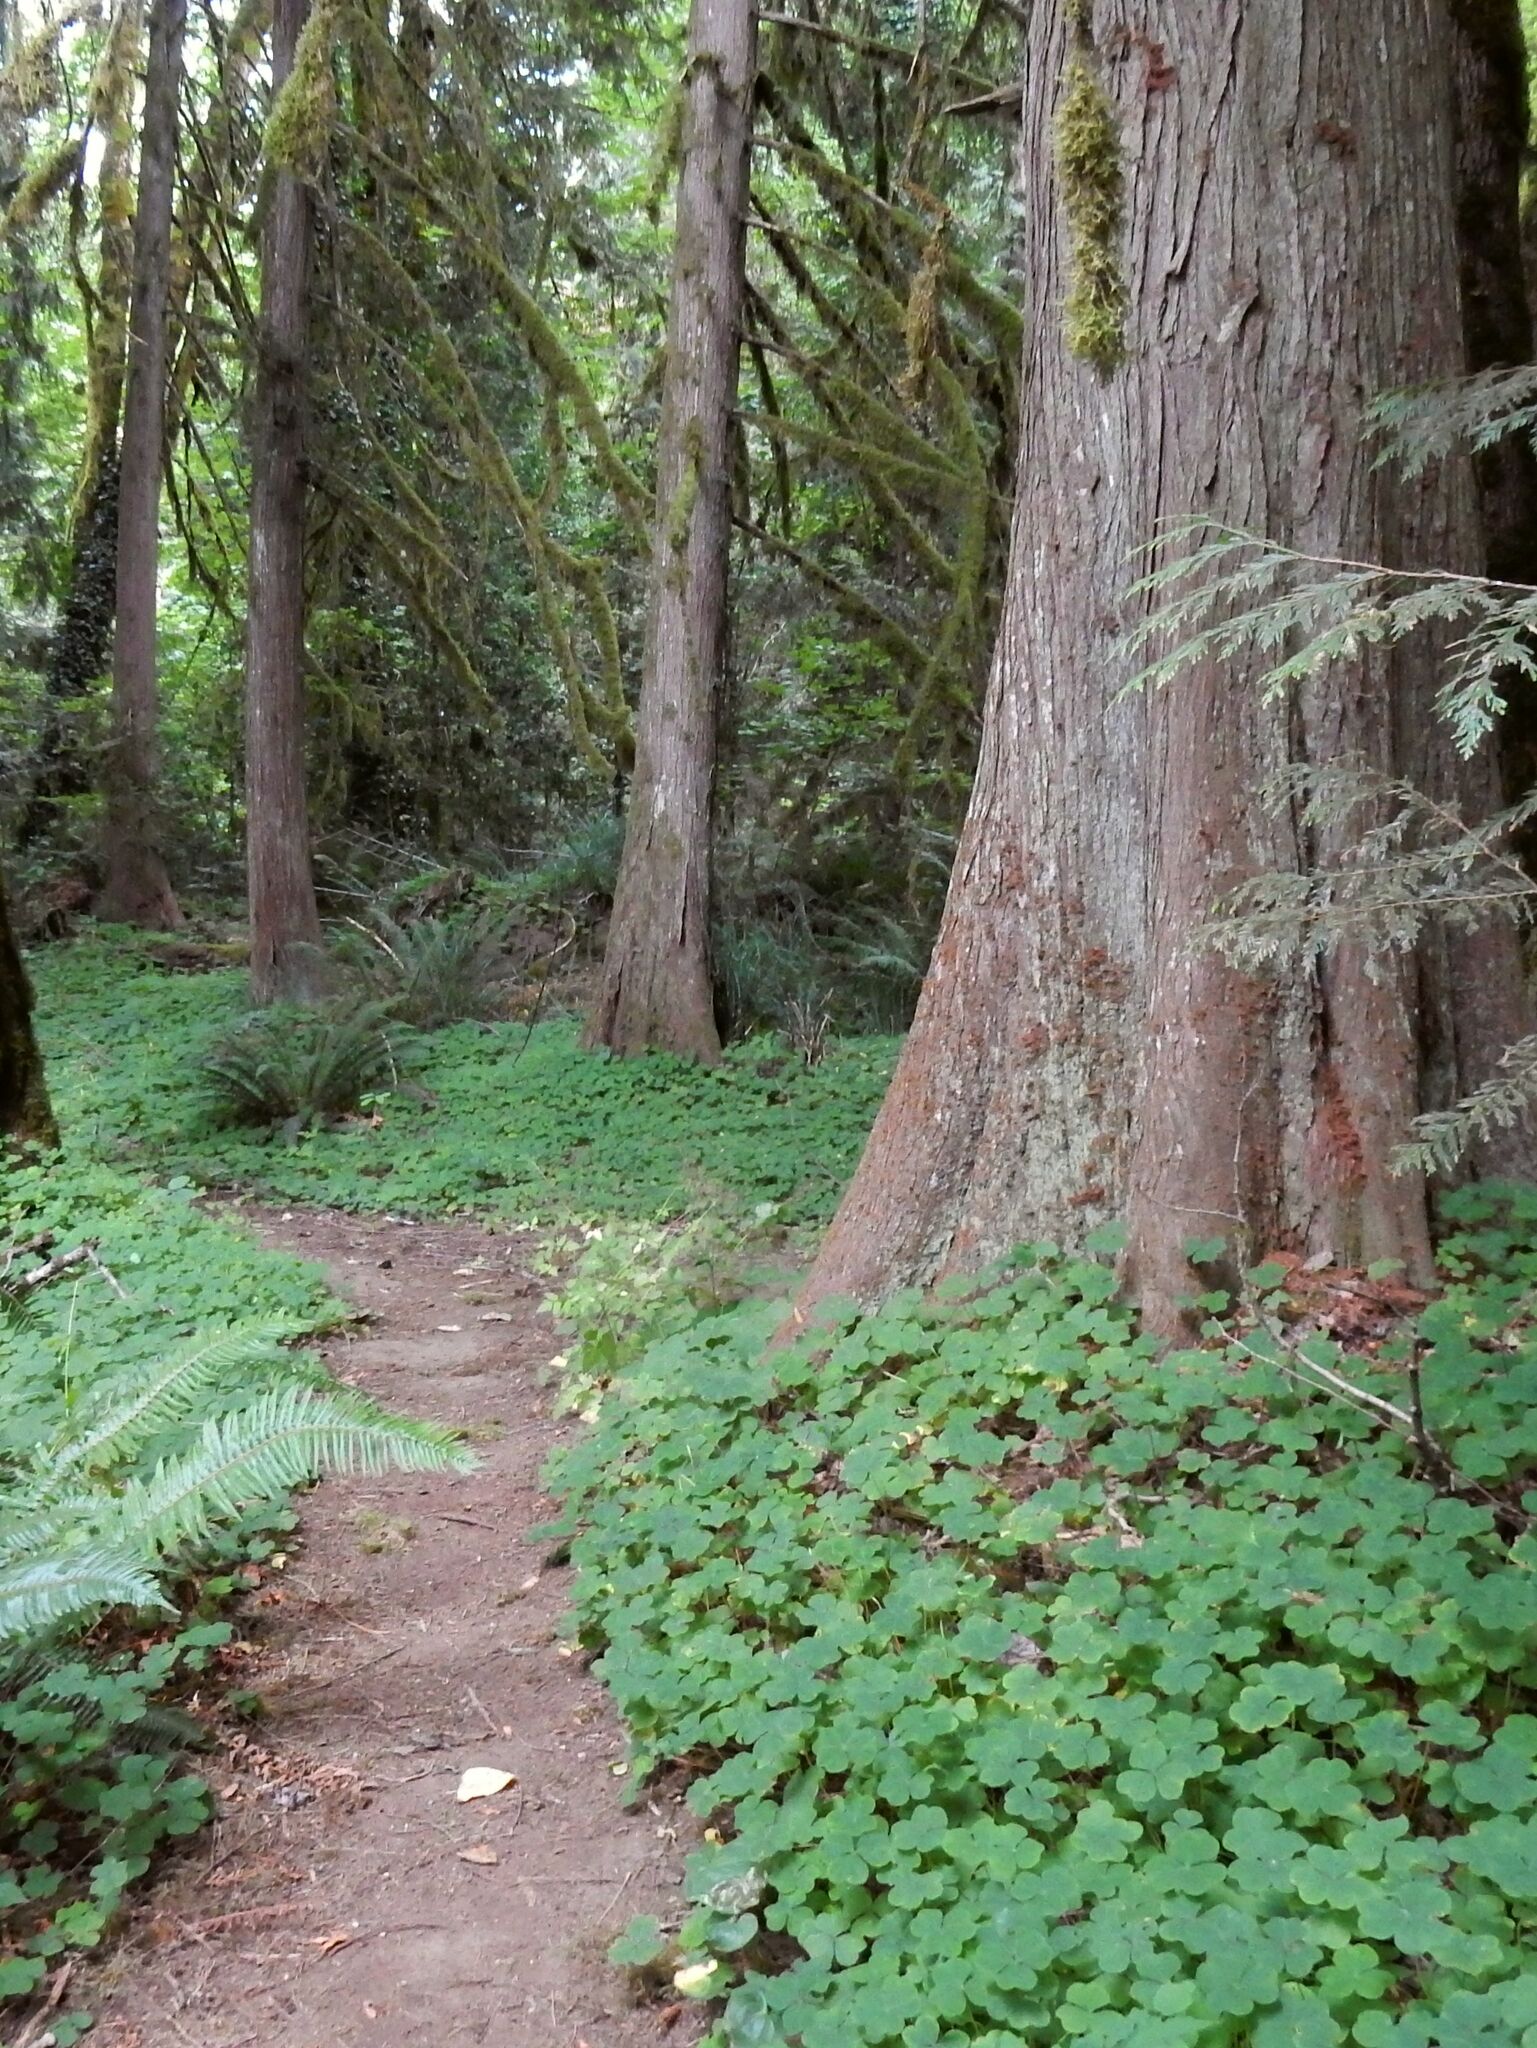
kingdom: Plantae
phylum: Tracheophyta
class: Magnoliopsida
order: Oxalidales
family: Oxalidaceae
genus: Oxalis
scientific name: Oxalis oregana
